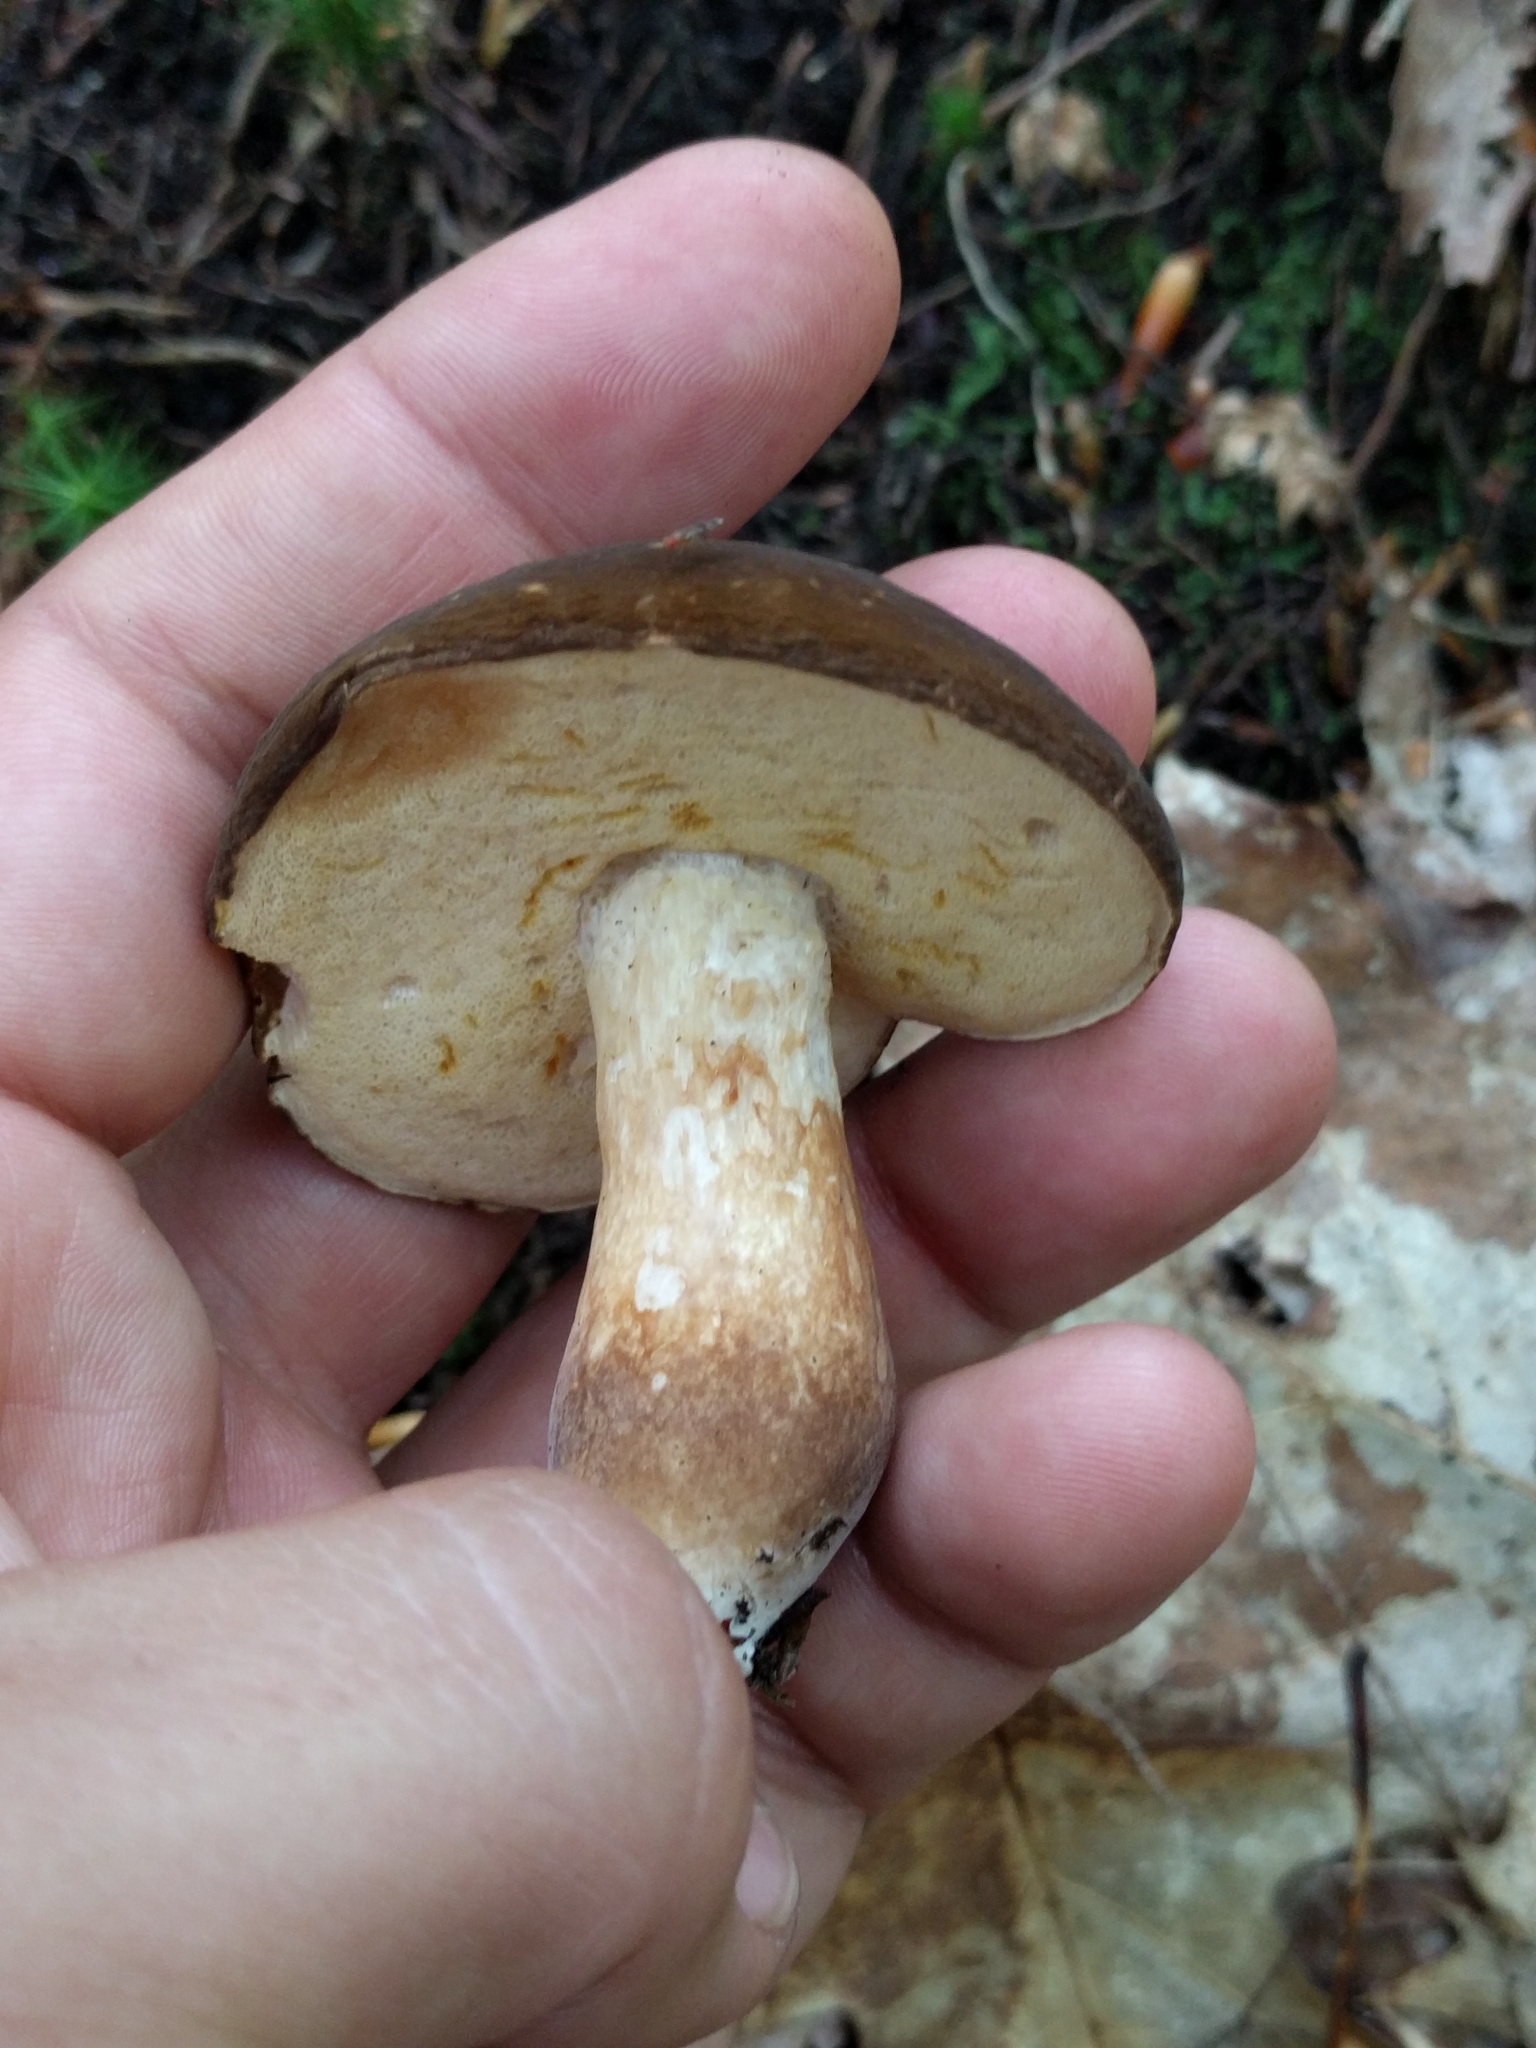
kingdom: Fungi
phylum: Basidiomycota
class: Agaricomycetes
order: Boletales
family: Boletaceae
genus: Xanthoconium
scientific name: Xanthoconium affine
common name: Spotted bolete
